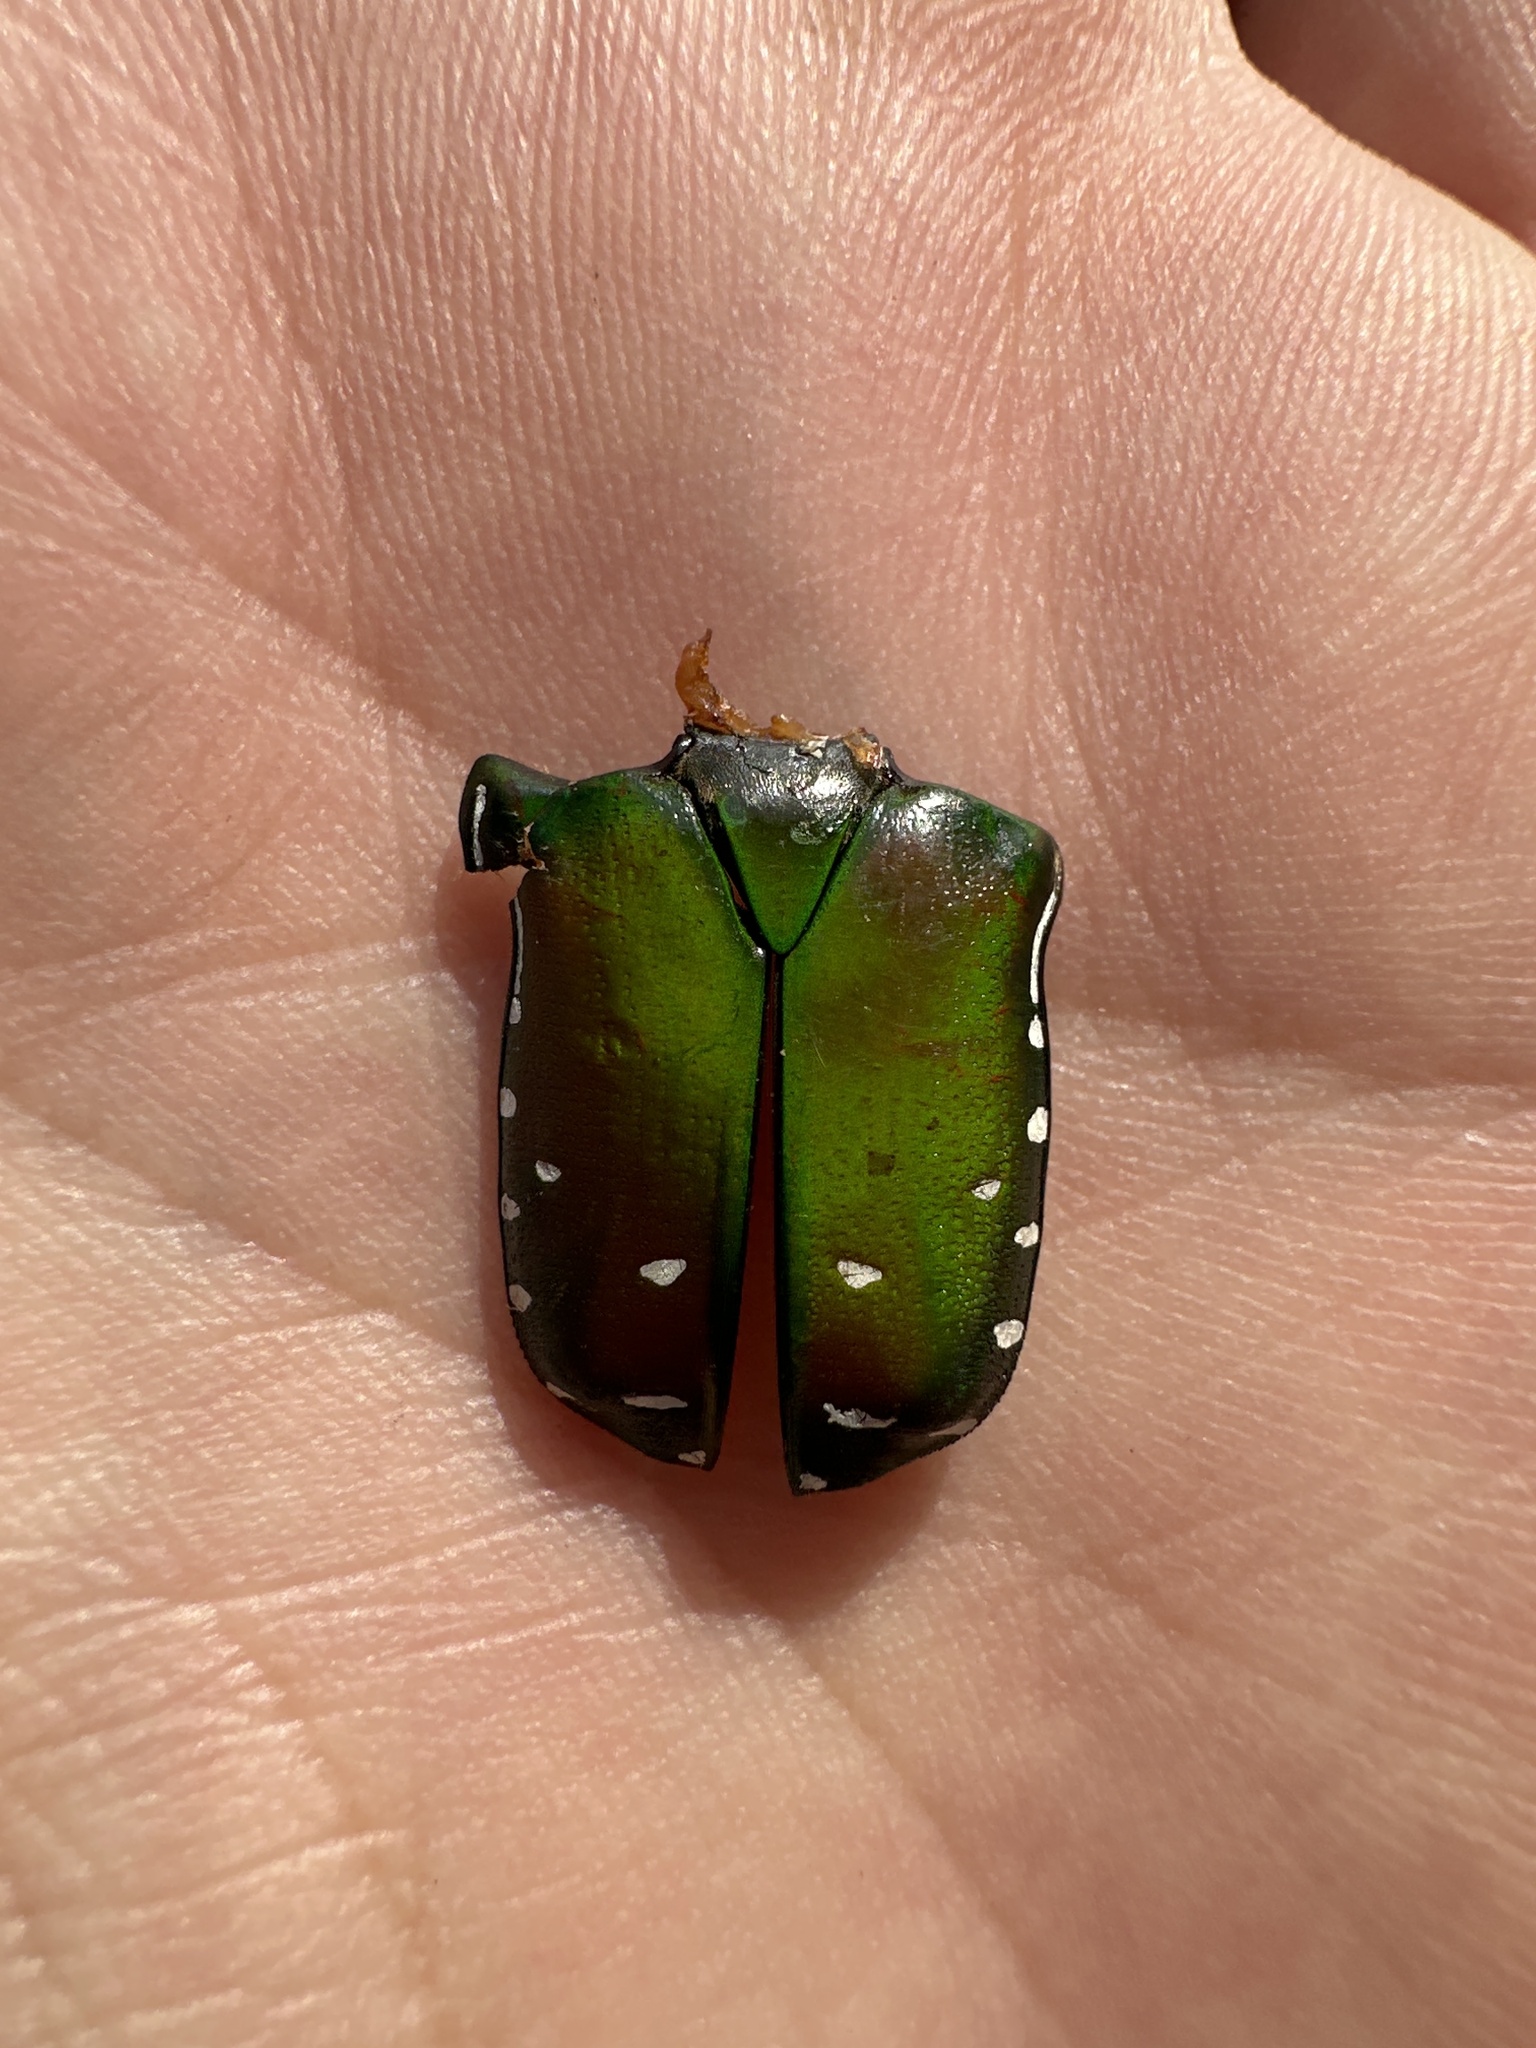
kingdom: Animalia
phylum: Arthropoda
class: Insecta
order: Coleoptera
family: Scarabaeidae
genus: Rhabdotis
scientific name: Rhabdotis aulica
